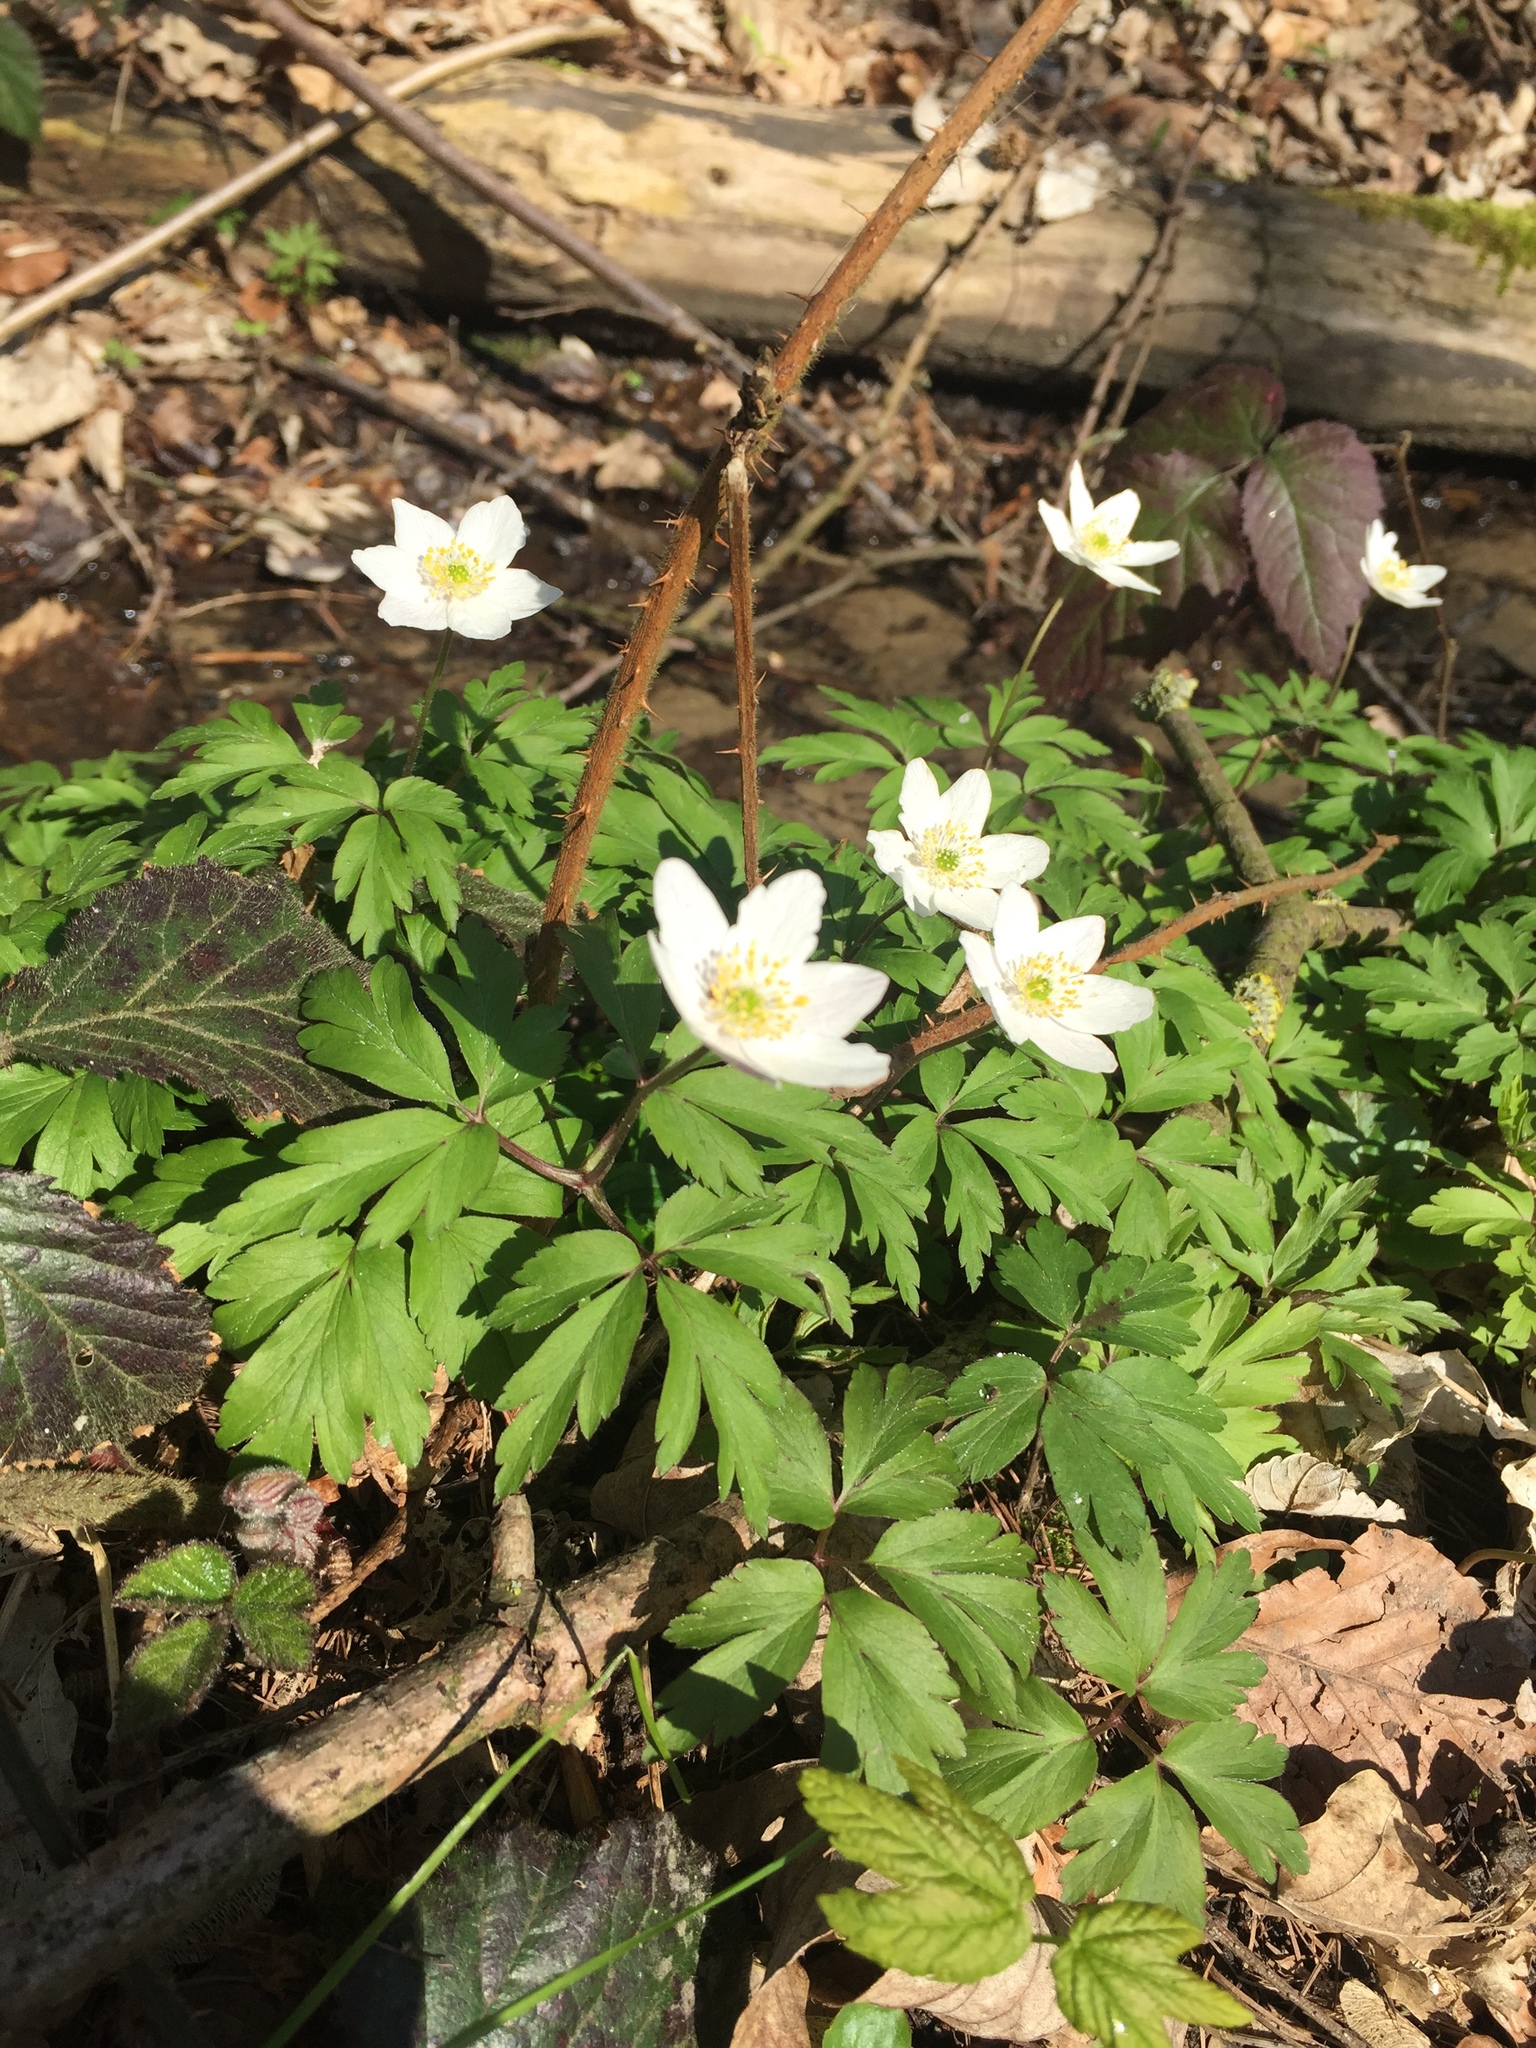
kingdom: Plantae
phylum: Tracheophyta
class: Magnoliopsida
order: Ranunculales
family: Ranunculaceae
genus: Anemone
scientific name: Anemone nemorosa
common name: Wood anemone
